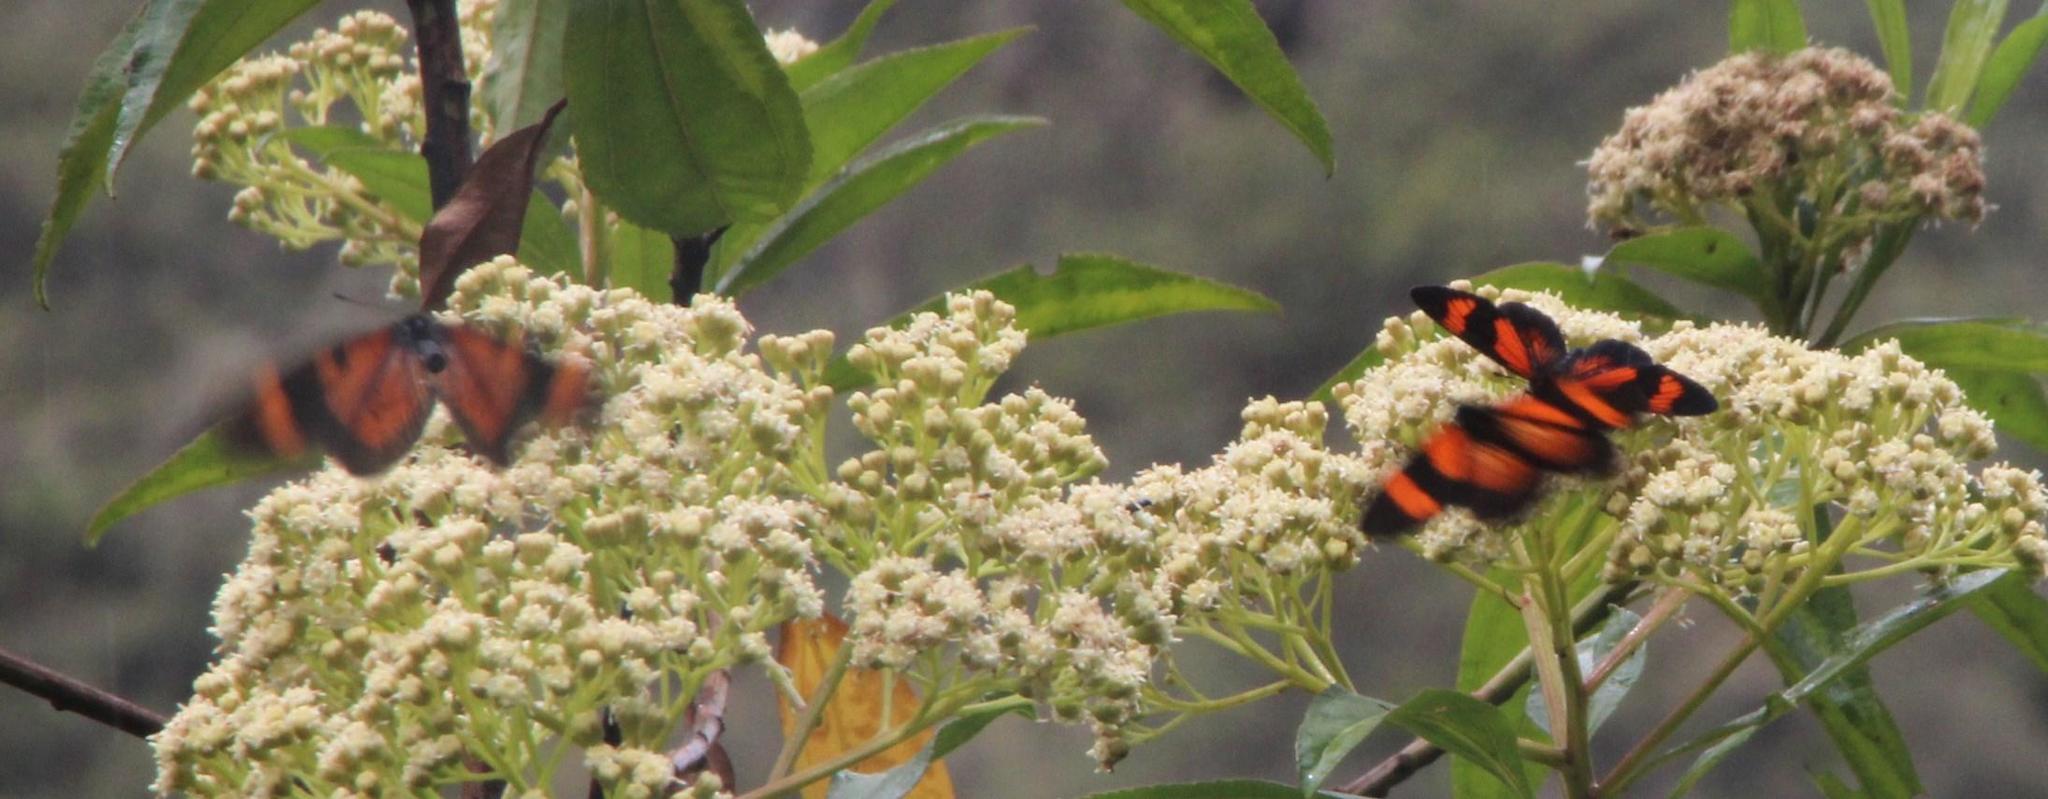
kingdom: Animalia
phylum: Arthropoda
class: Insecta
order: Lepidoptera
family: Nymphalidae
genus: Actinote
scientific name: Actinote negra
